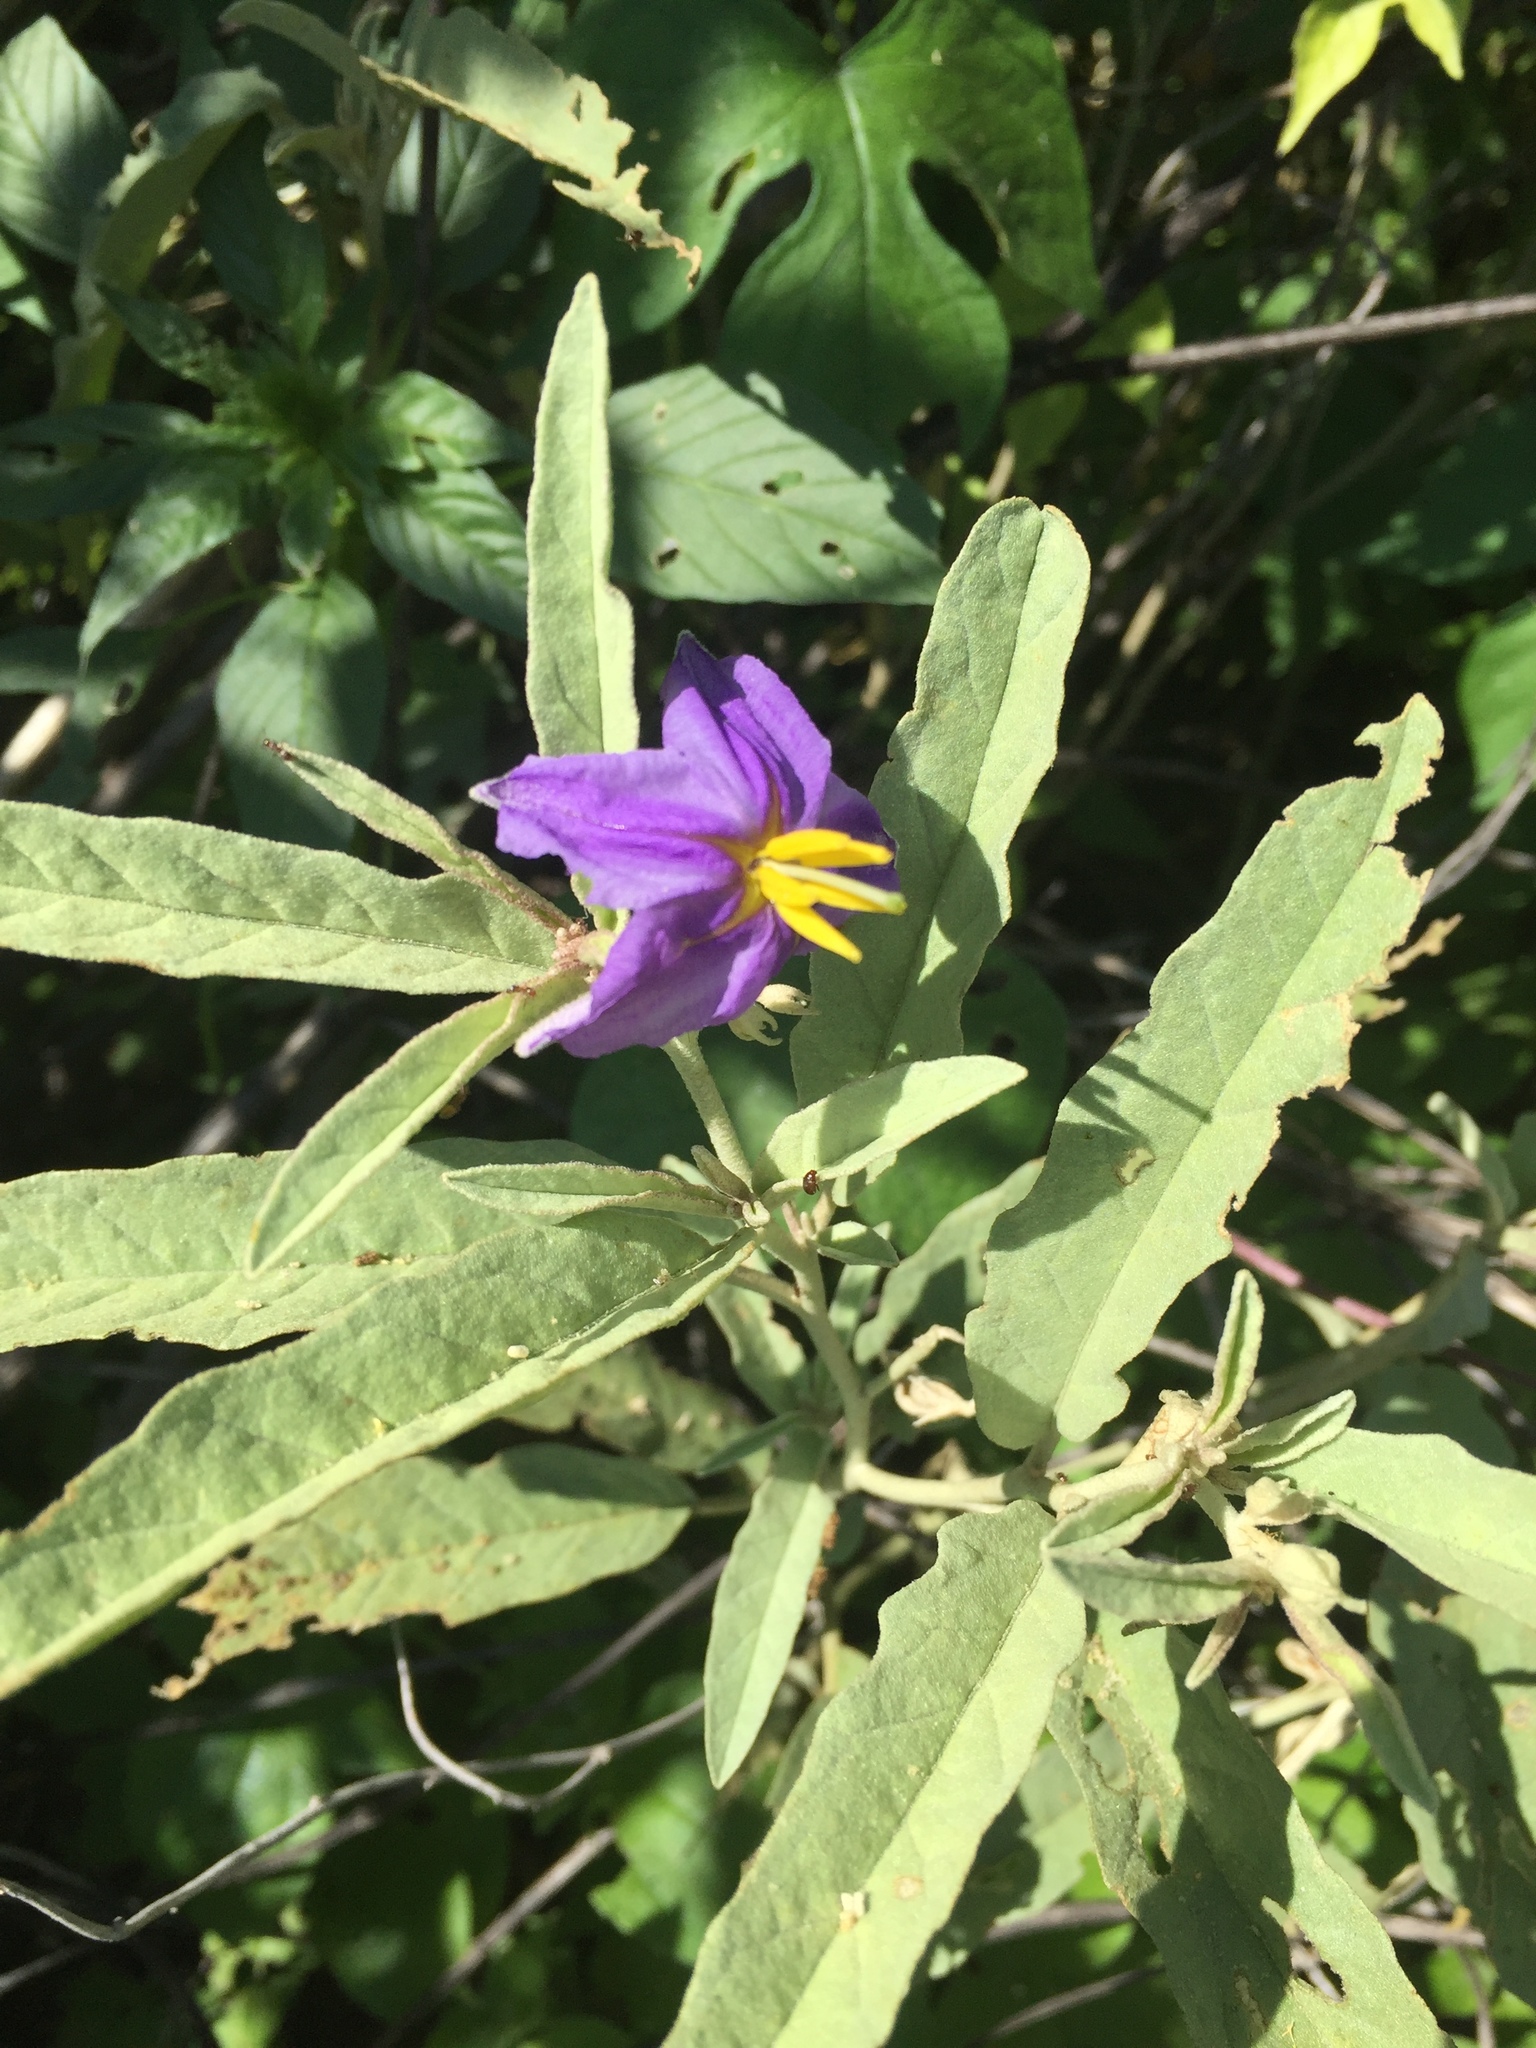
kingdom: Plantae
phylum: Tracheophyta
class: Magnoliopsida
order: Solanales
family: Solanaceae
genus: Solanum
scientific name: Solanum elaeagnifolium
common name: Silverleaf nightshade
